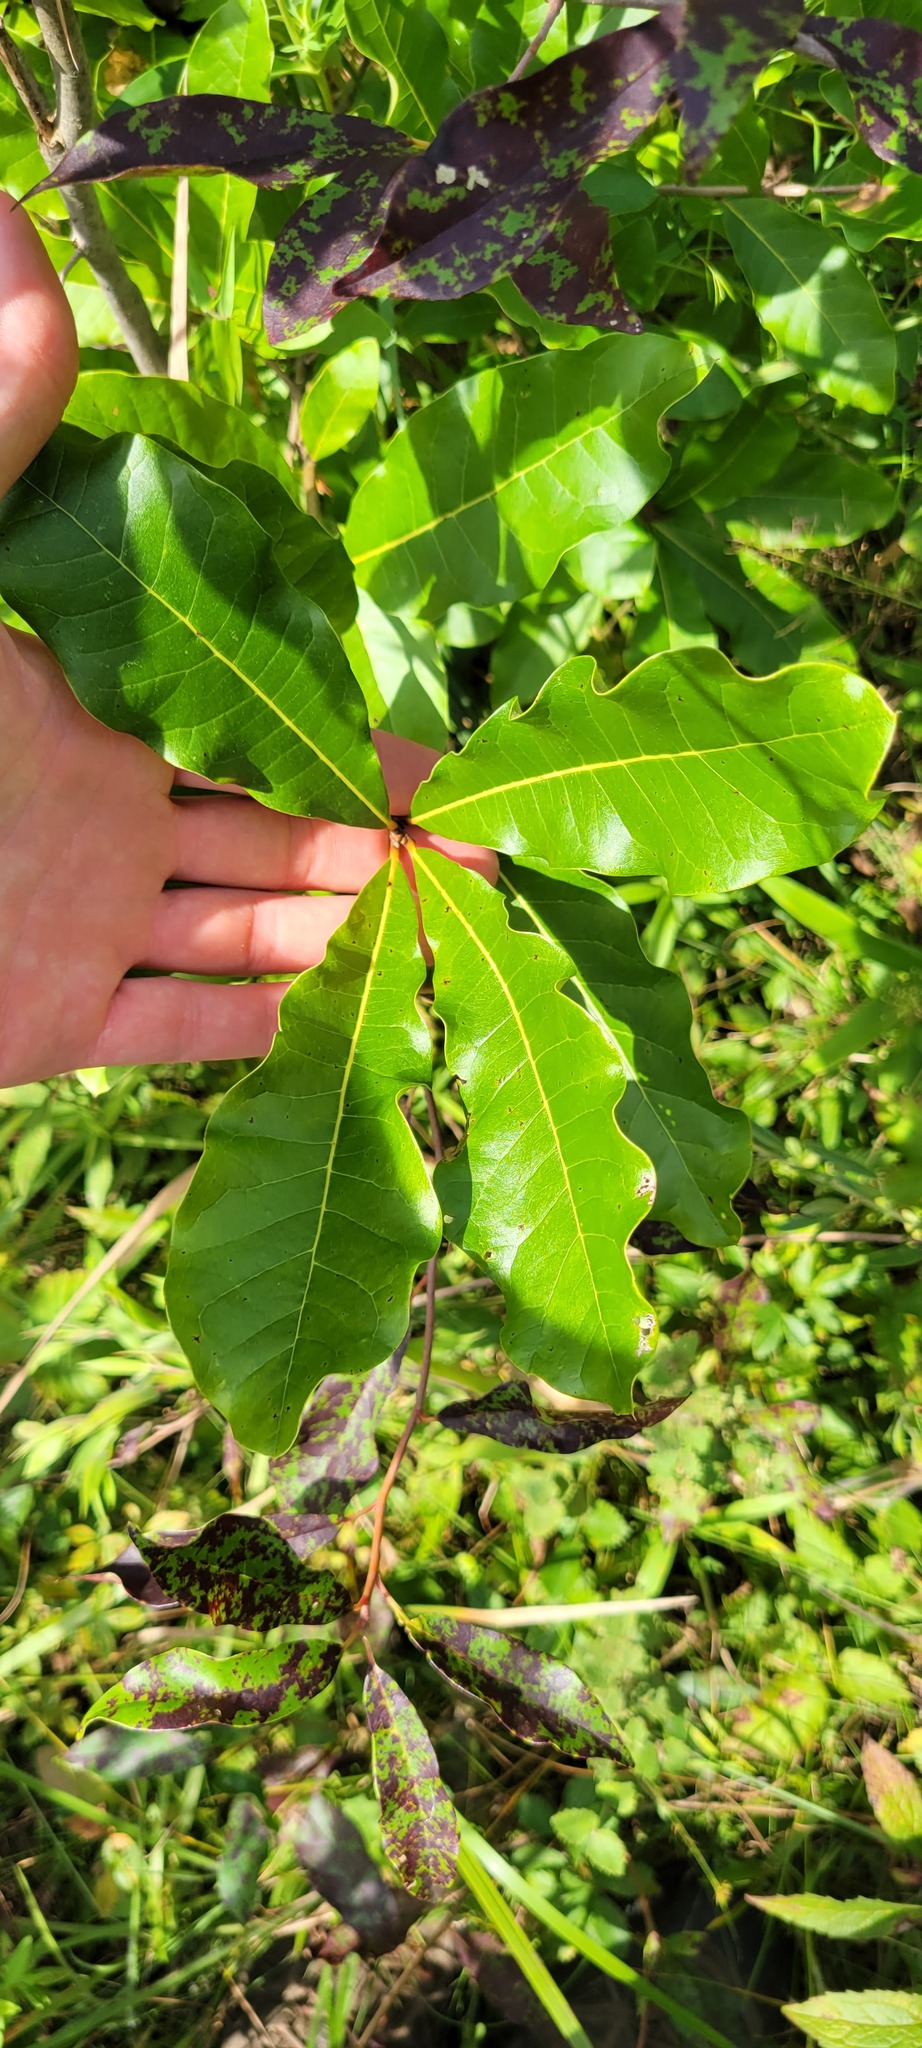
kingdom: Plantae
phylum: Tracheophyta
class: Magnoliopsida
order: Fagales
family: Fagaceae
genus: Quercus
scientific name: Quercus imbricaria
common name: Shingle oak
